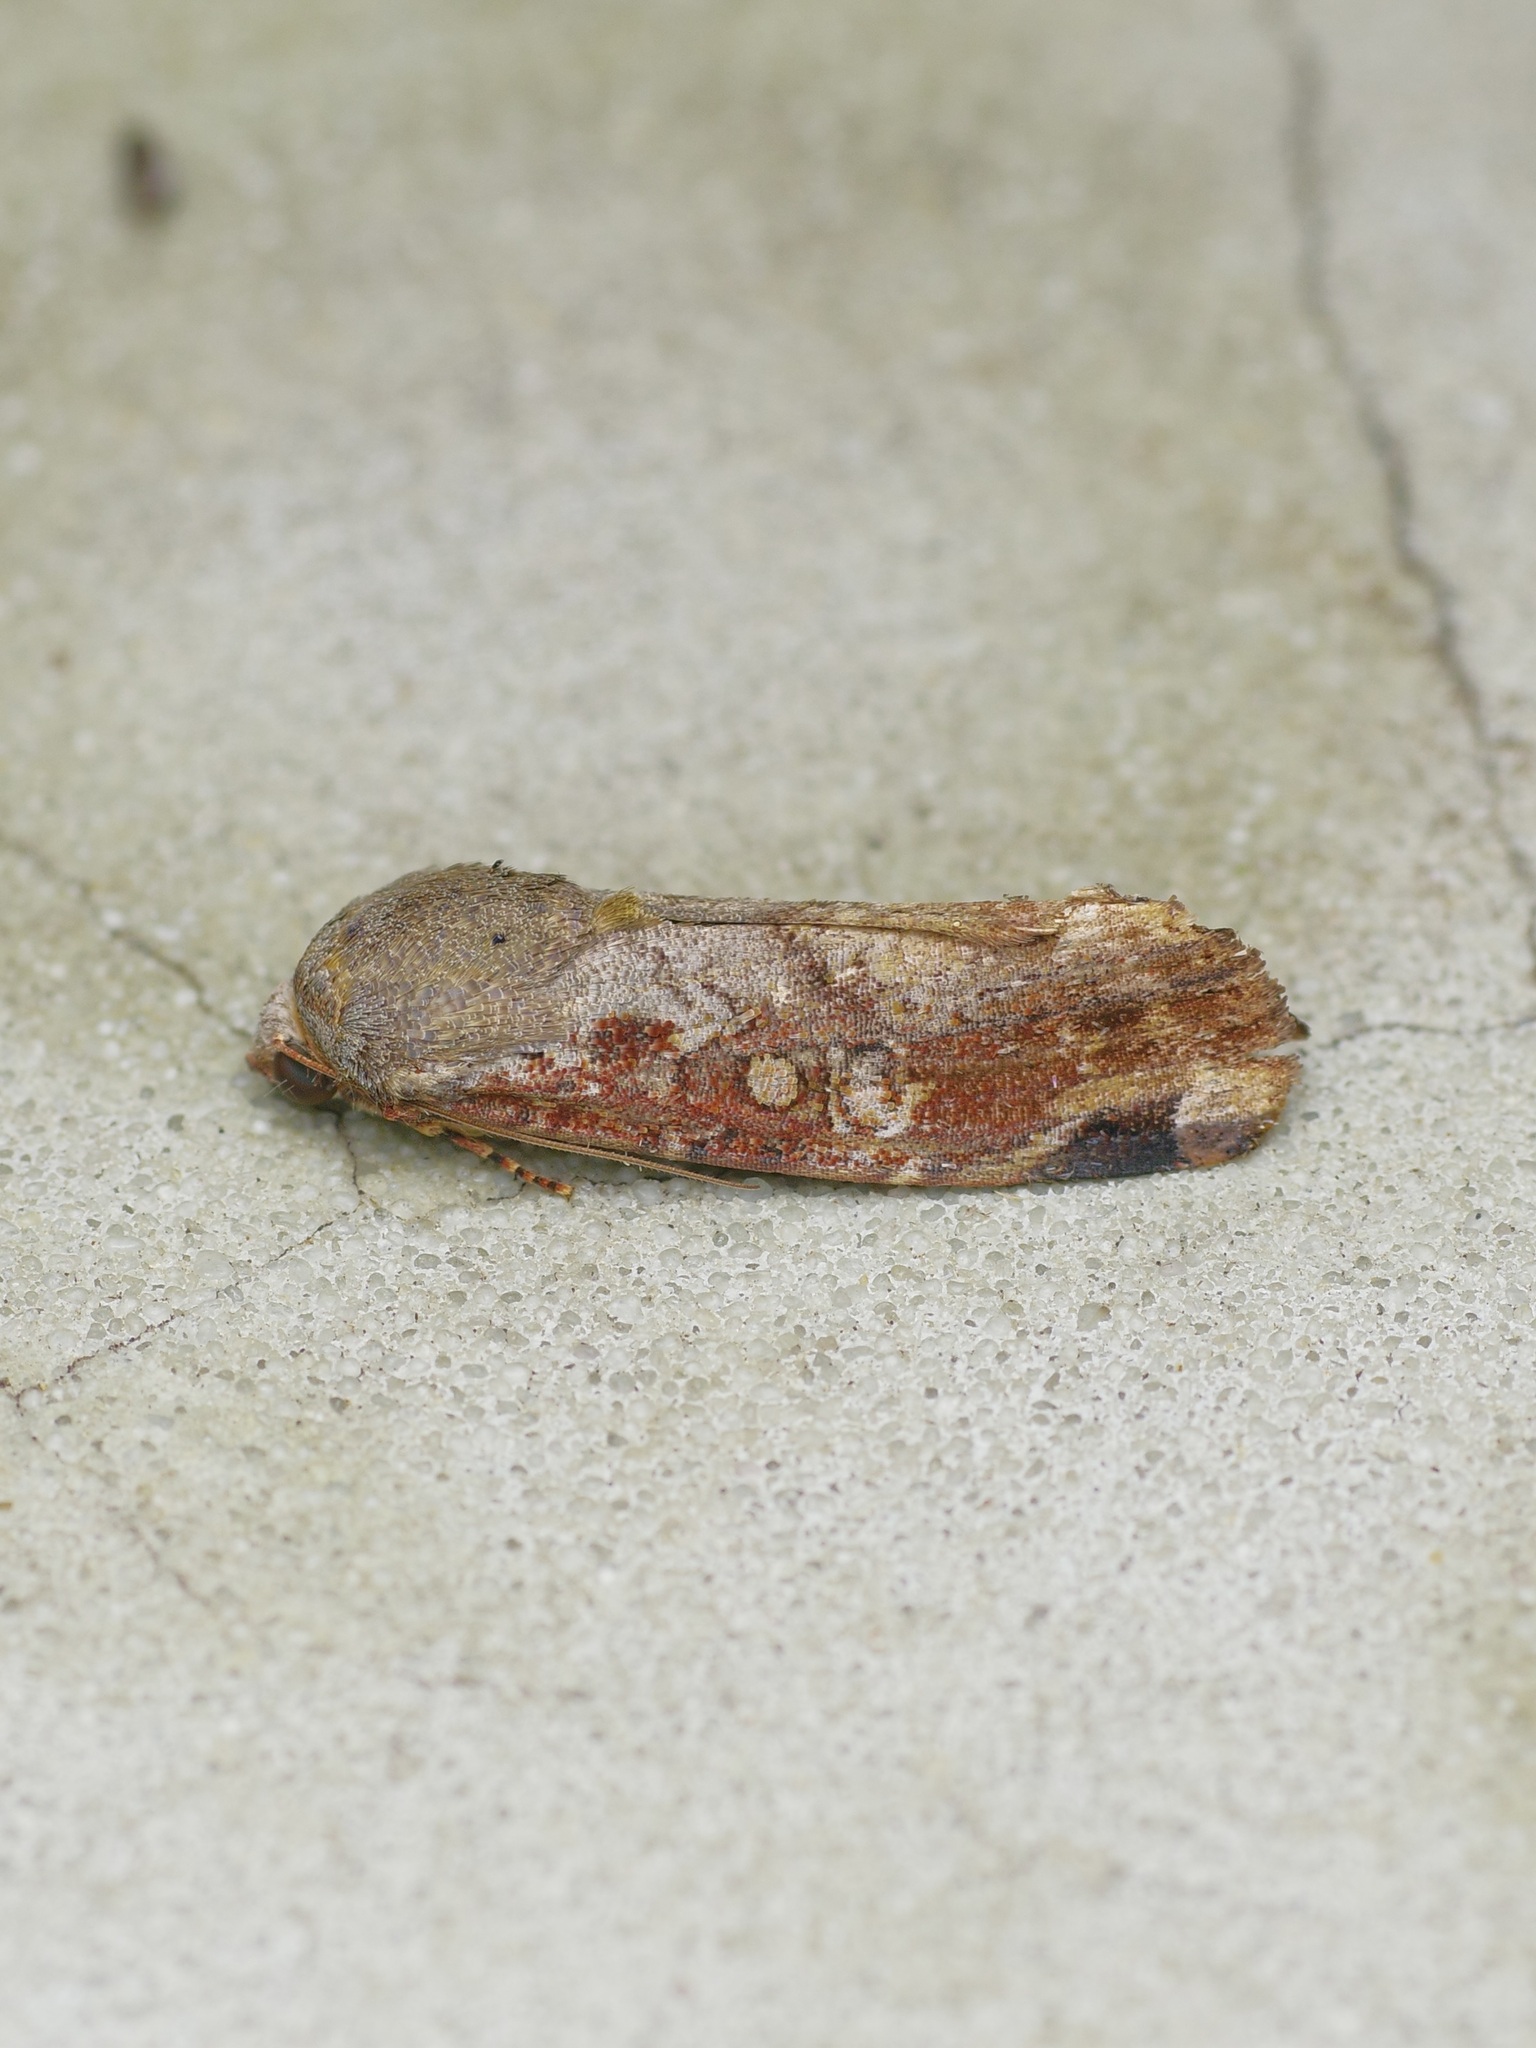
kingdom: Animalia
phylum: Arthropoda
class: Insecta
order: Lepidoptera
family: Noctuidae
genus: Magusa
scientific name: Magusa divaricata
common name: Orb narrow-winged moth
